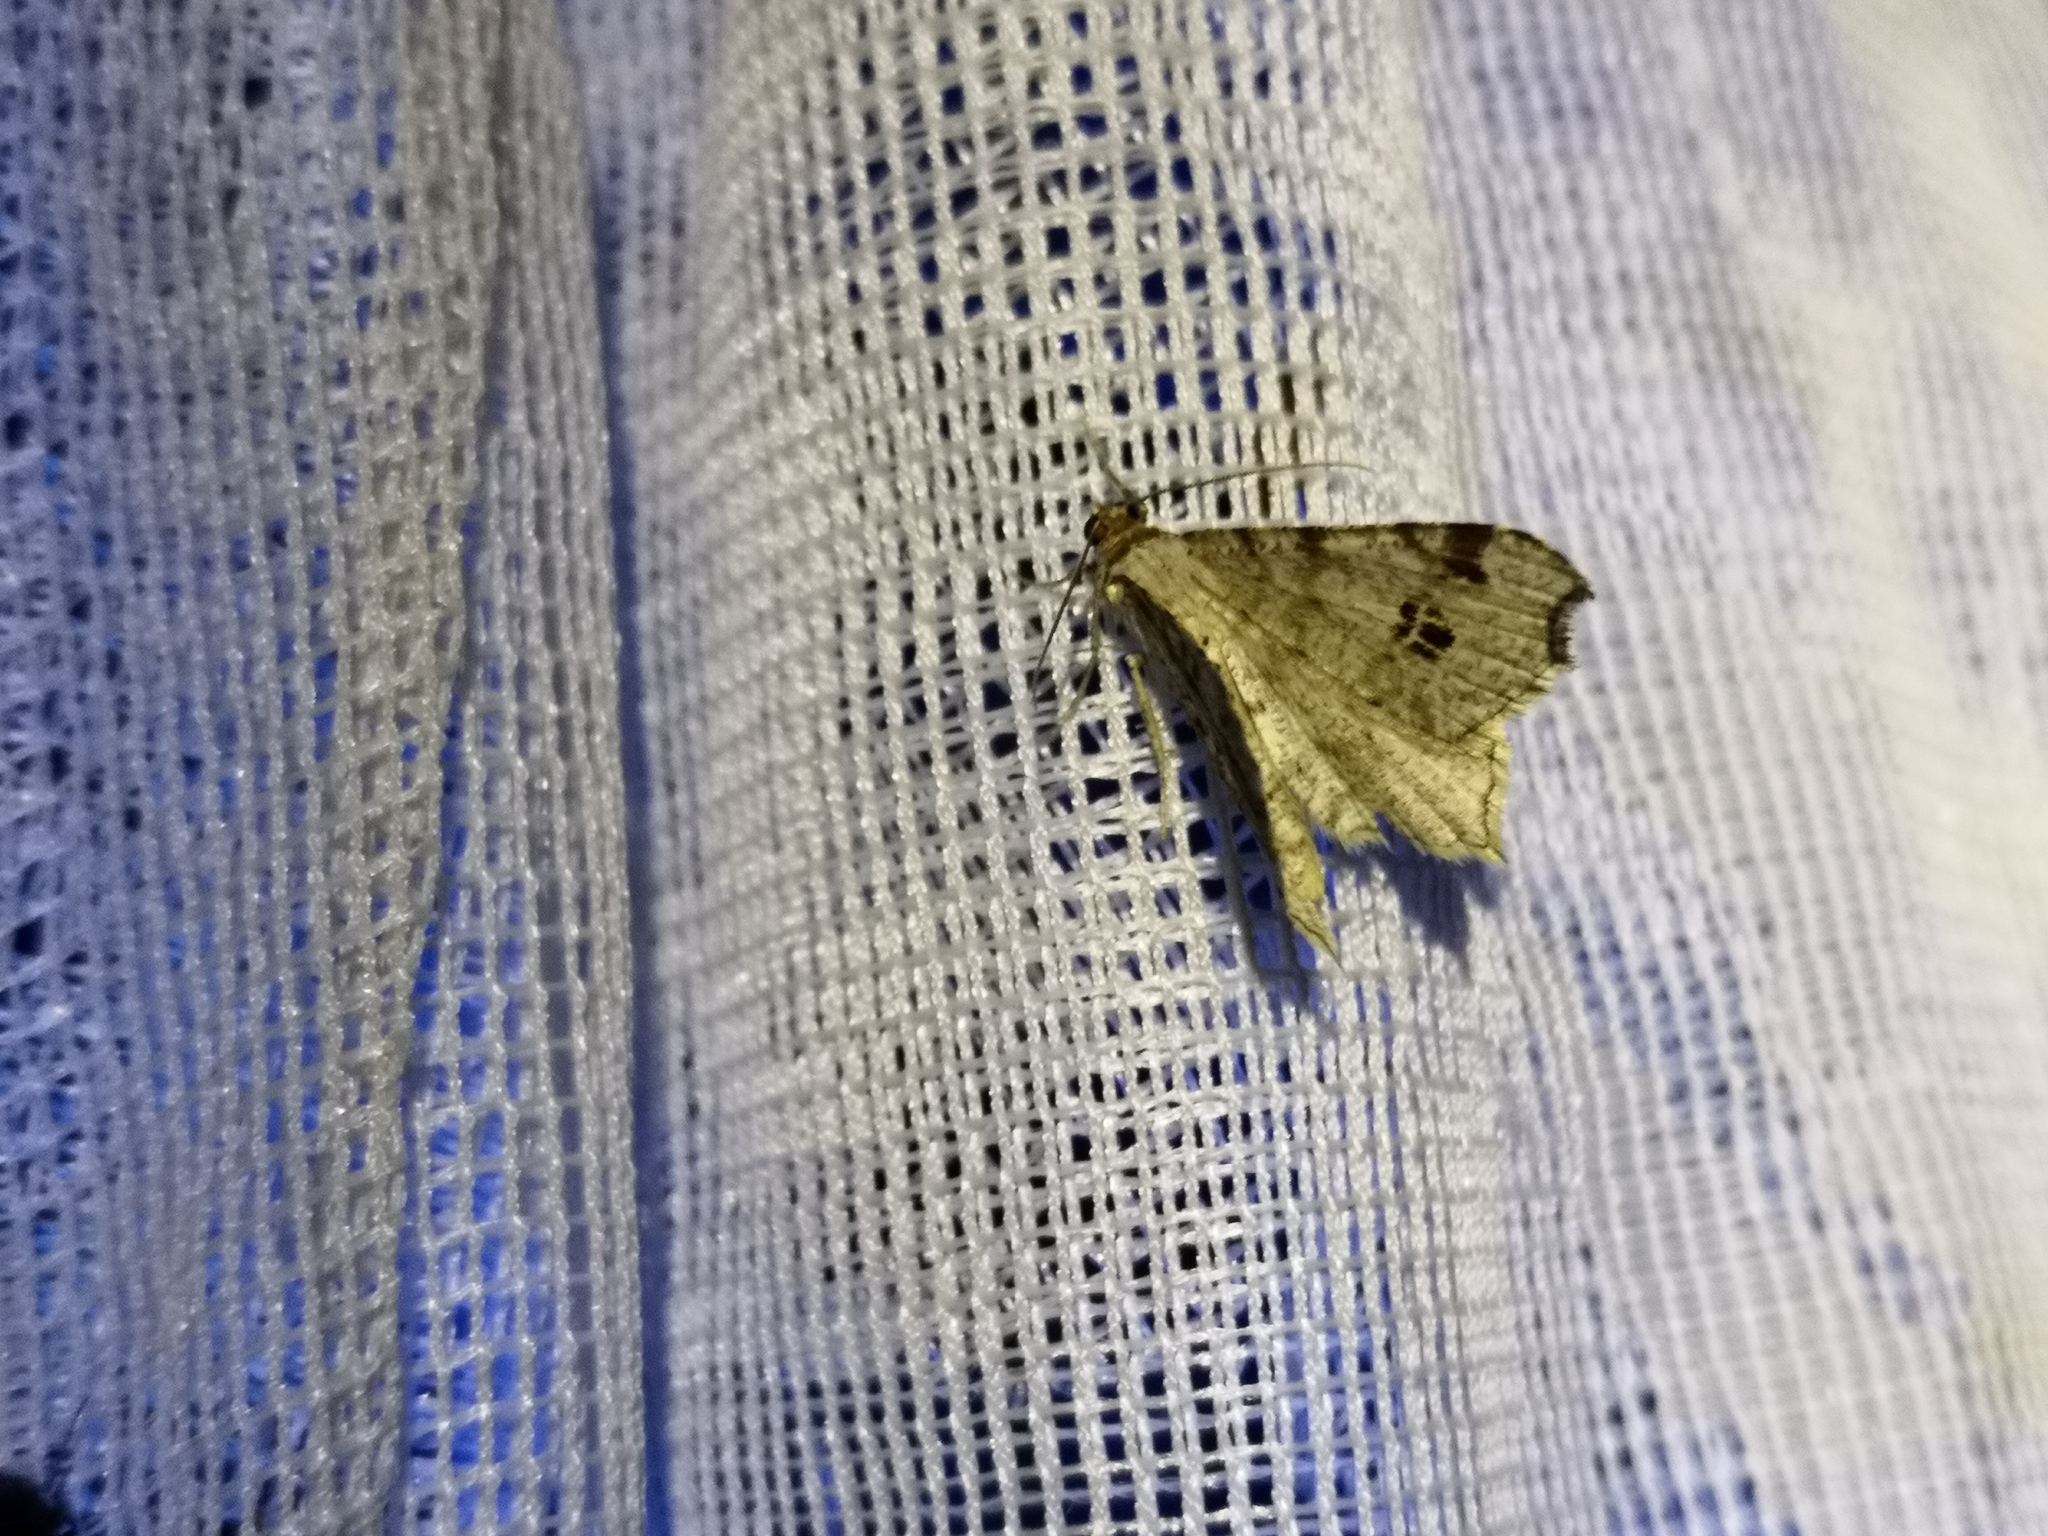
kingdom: Animalia
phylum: Arthropoda
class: Insecta
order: Lepidoptera
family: Geometridae
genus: Macaria
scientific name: Macaria notata
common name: Peacock moth
